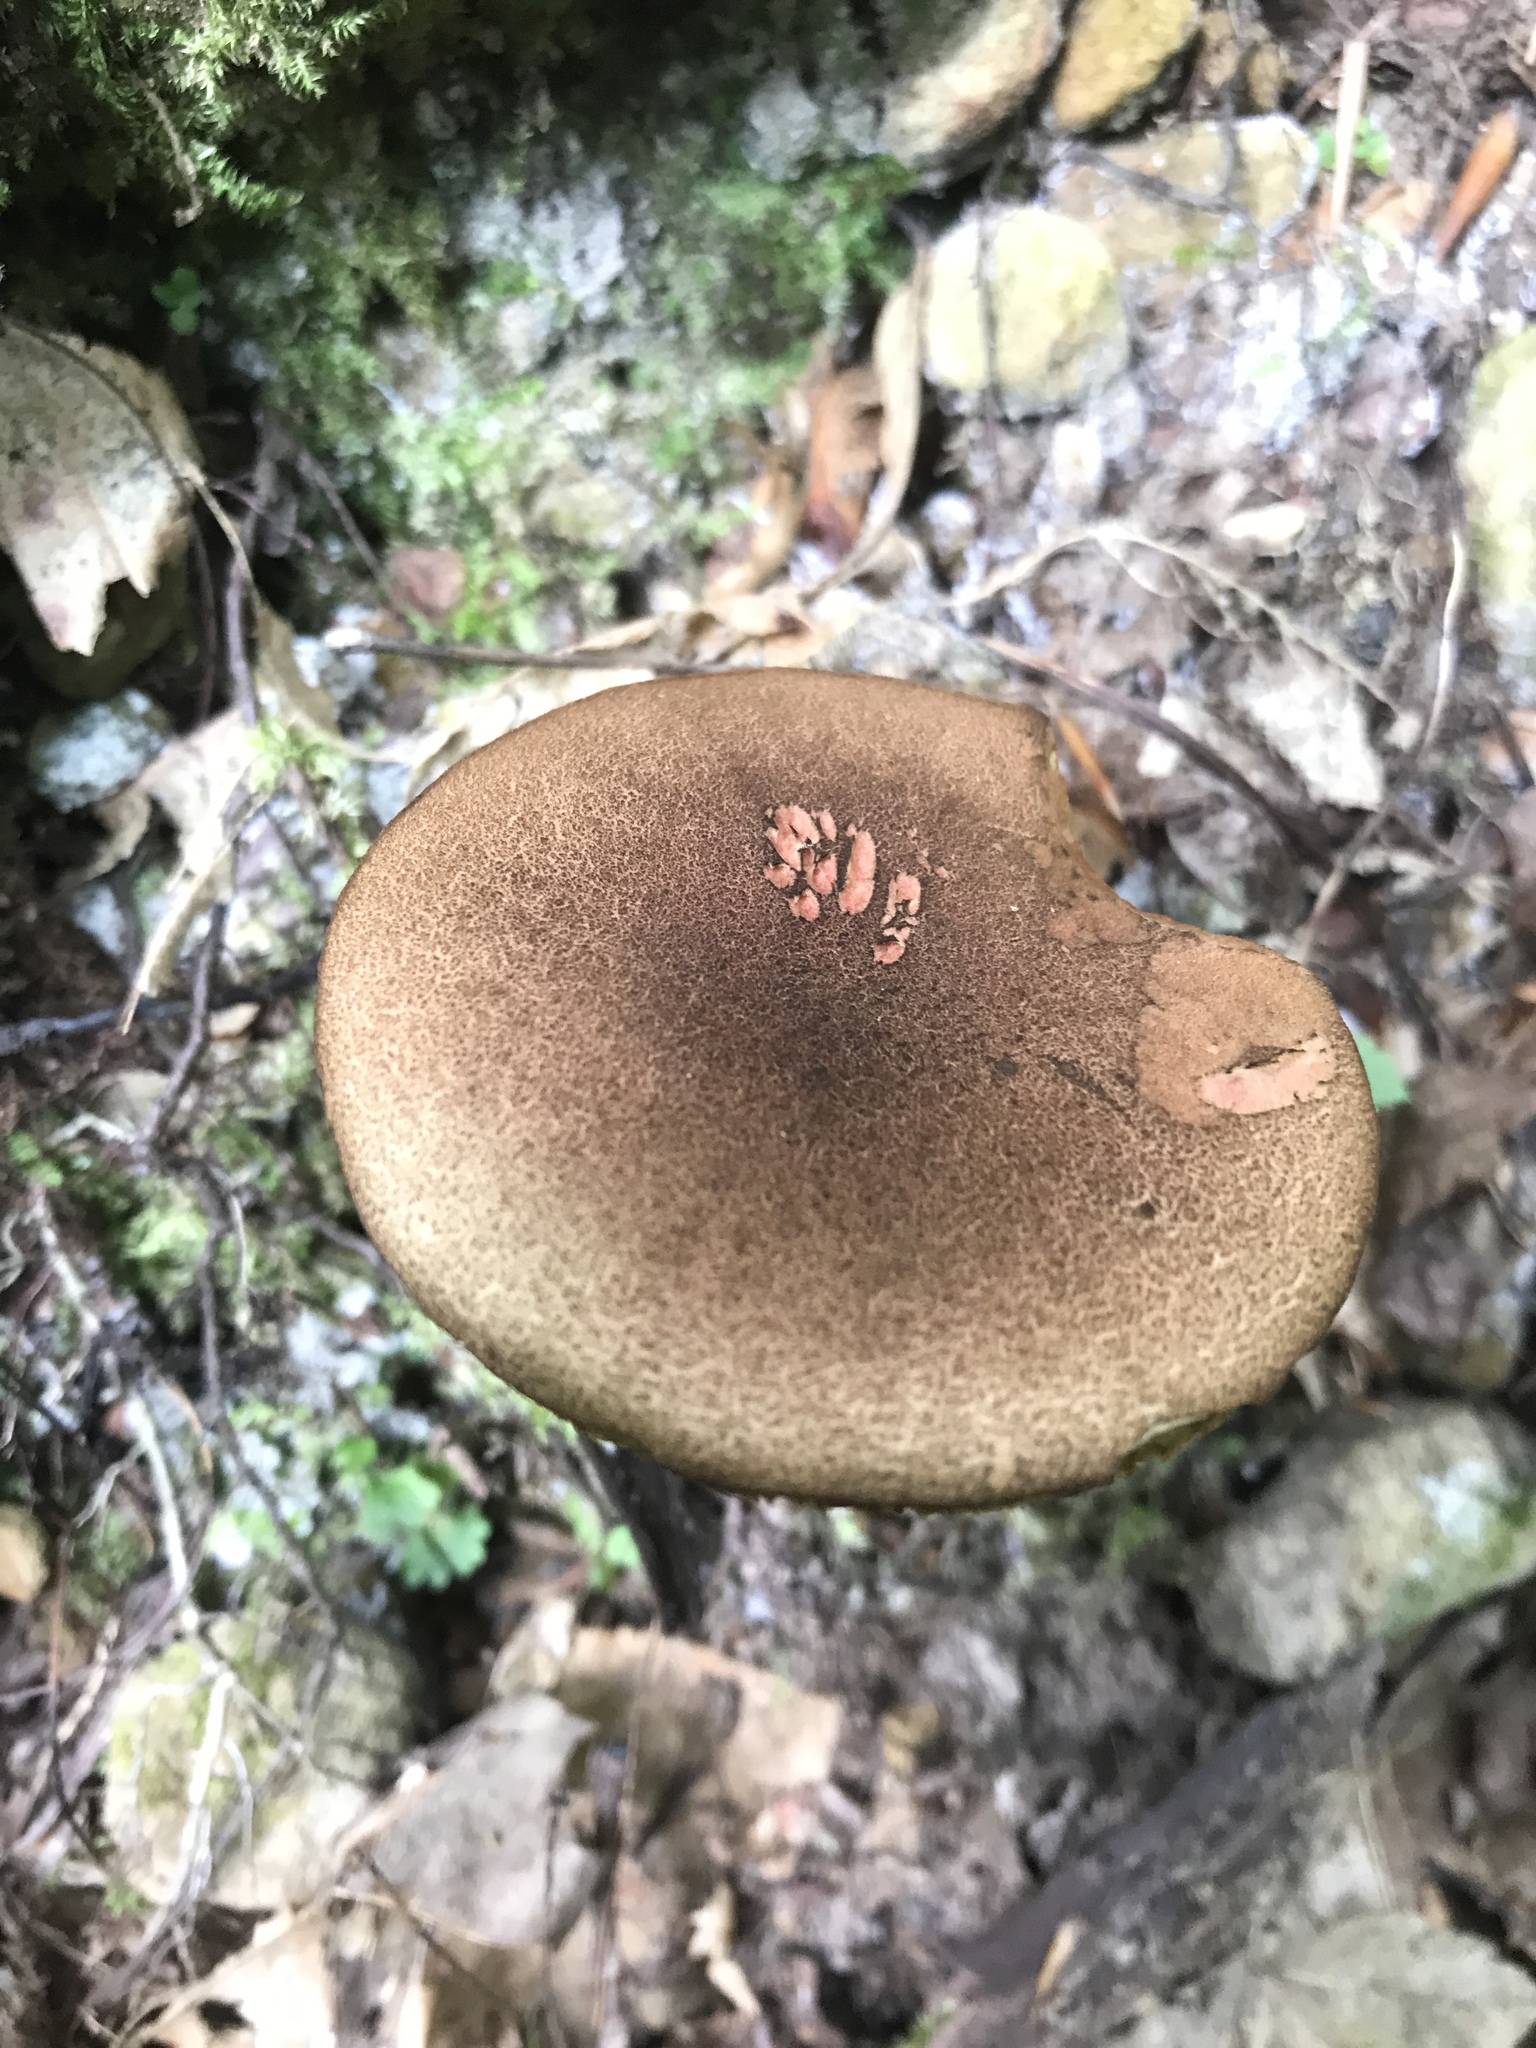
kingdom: Fungi
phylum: Basidiomycota
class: Agaricomycetes
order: Boletales
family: Boletaceae
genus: Boletellus
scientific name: Boletellus chrysenteroides
